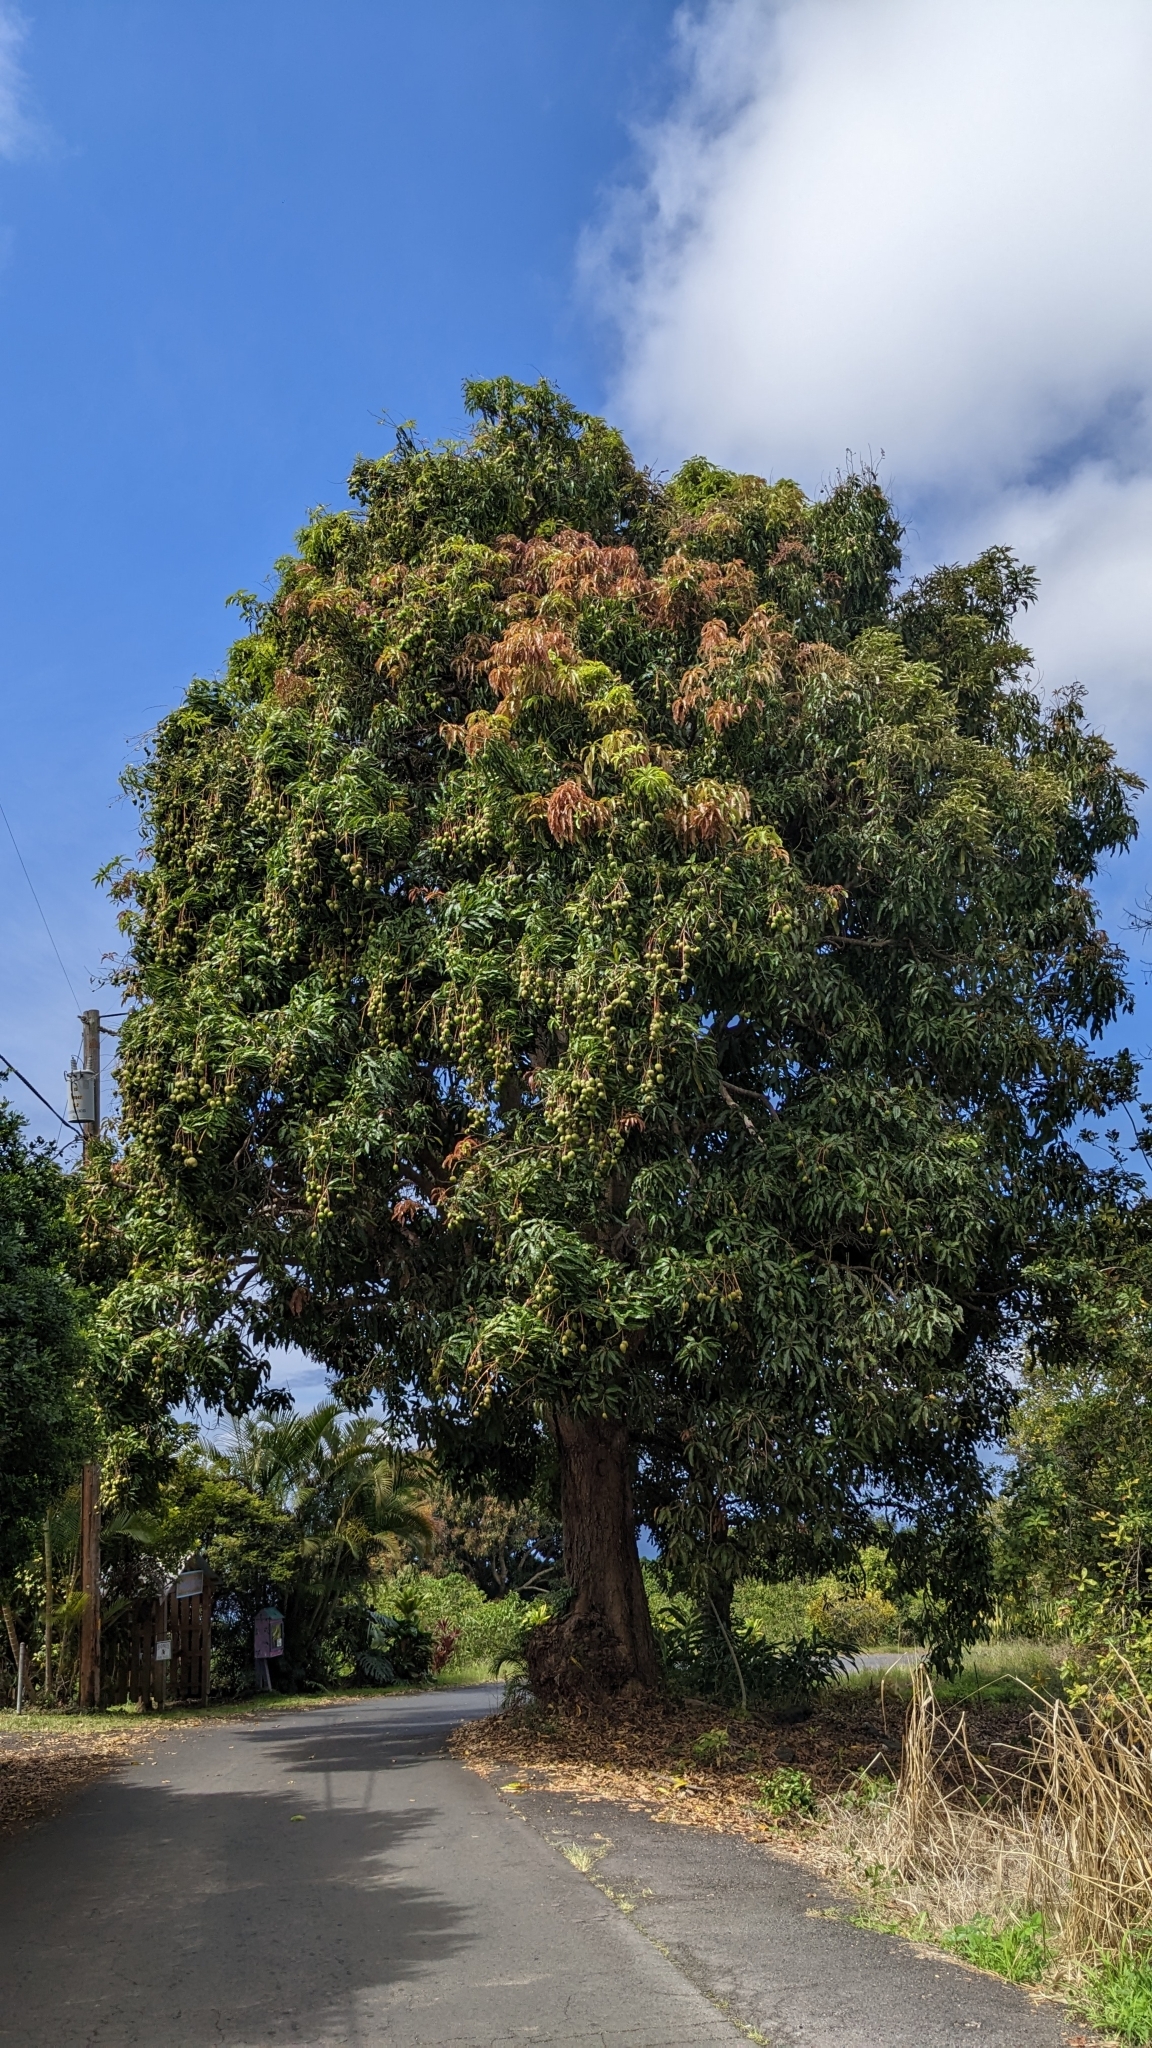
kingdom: Plantae
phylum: Tracheophyta
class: Magnoliopsida
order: Sapindales
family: Anacardiaceae
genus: Mangifera
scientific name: Mangifera indica
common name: Mango
